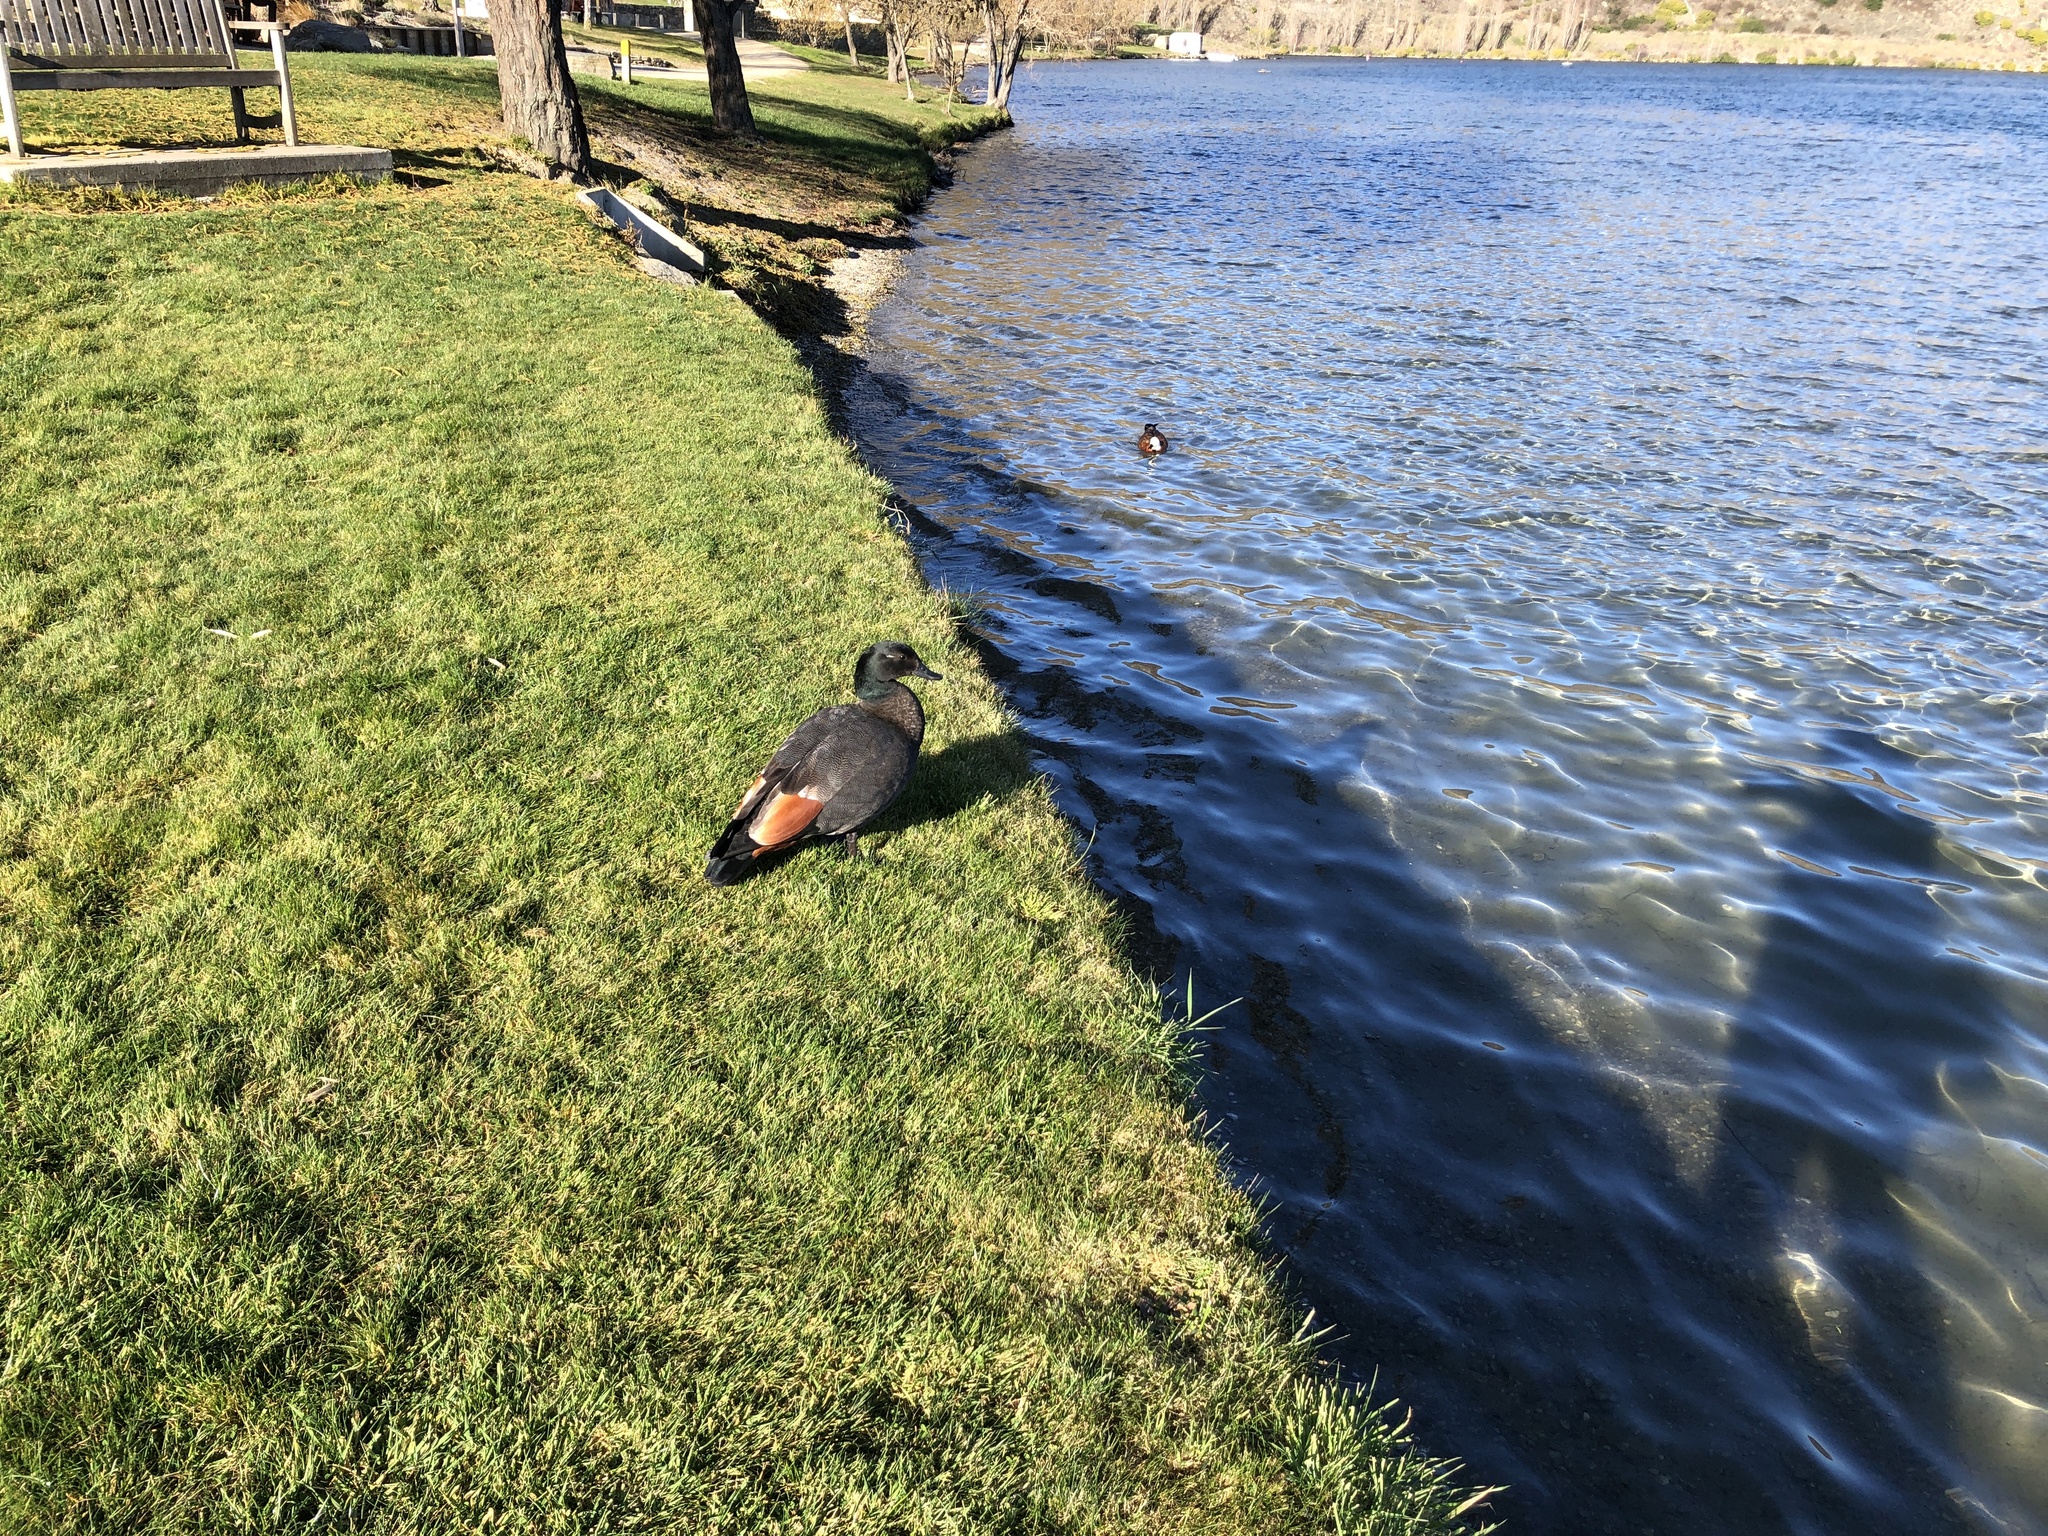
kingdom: Animalia
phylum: Chordata
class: Aves
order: Anseriformes
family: Anatidae
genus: Tadorna
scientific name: Tadorna variegata
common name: Paradise shelduck
